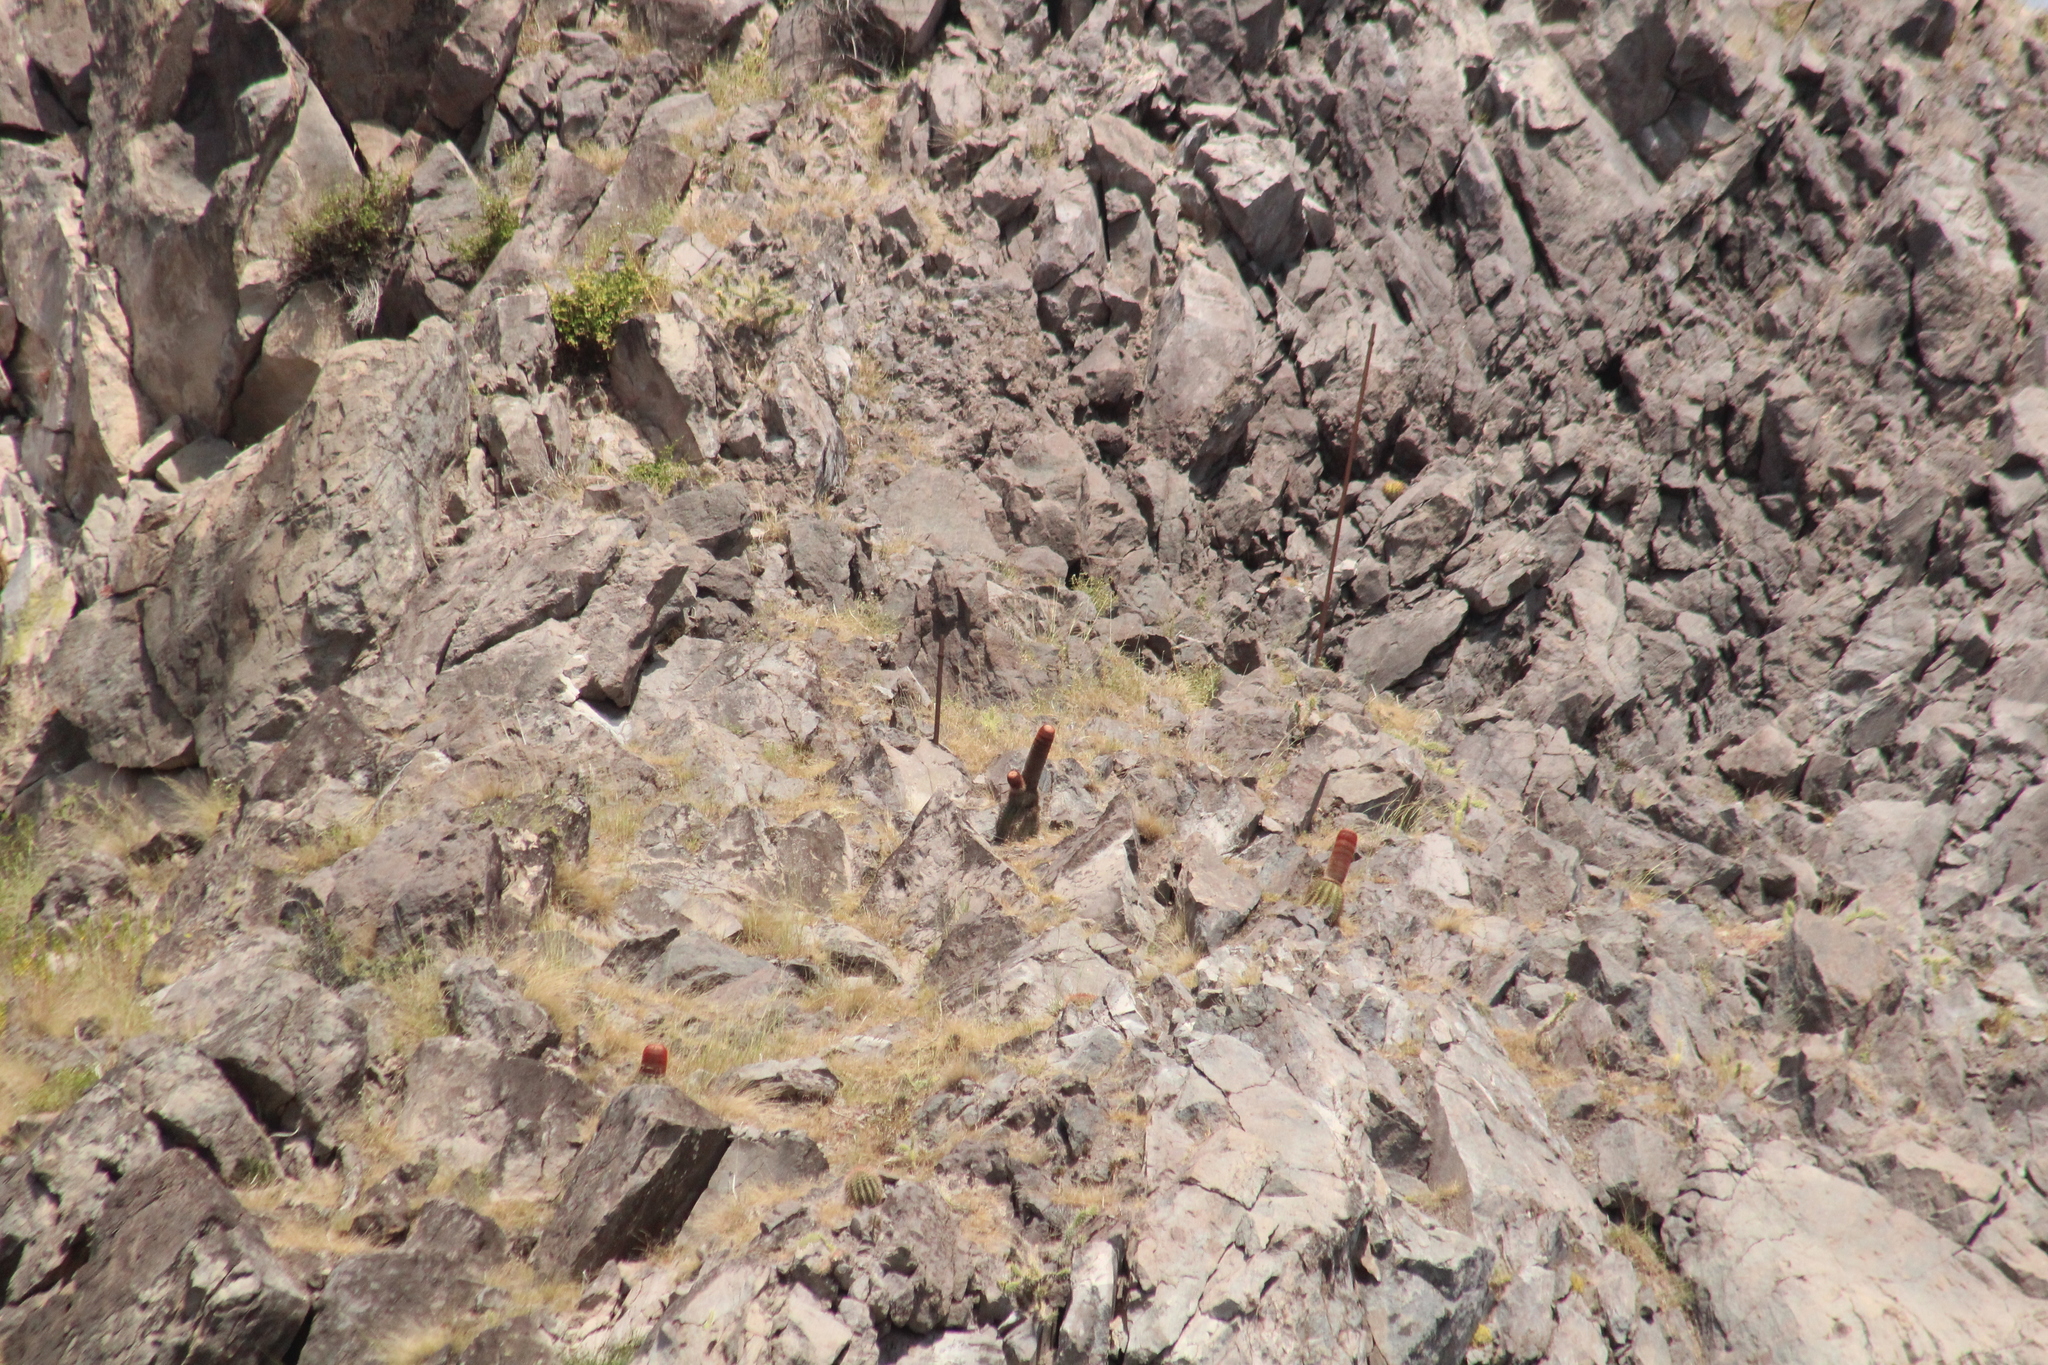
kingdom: Plantae
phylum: Tracheophyta
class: Magnoliopsida
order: Caryophyllales
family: Cactaceae
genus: Melocactus
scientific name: Melocactus intortus
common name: Barrel cactus
